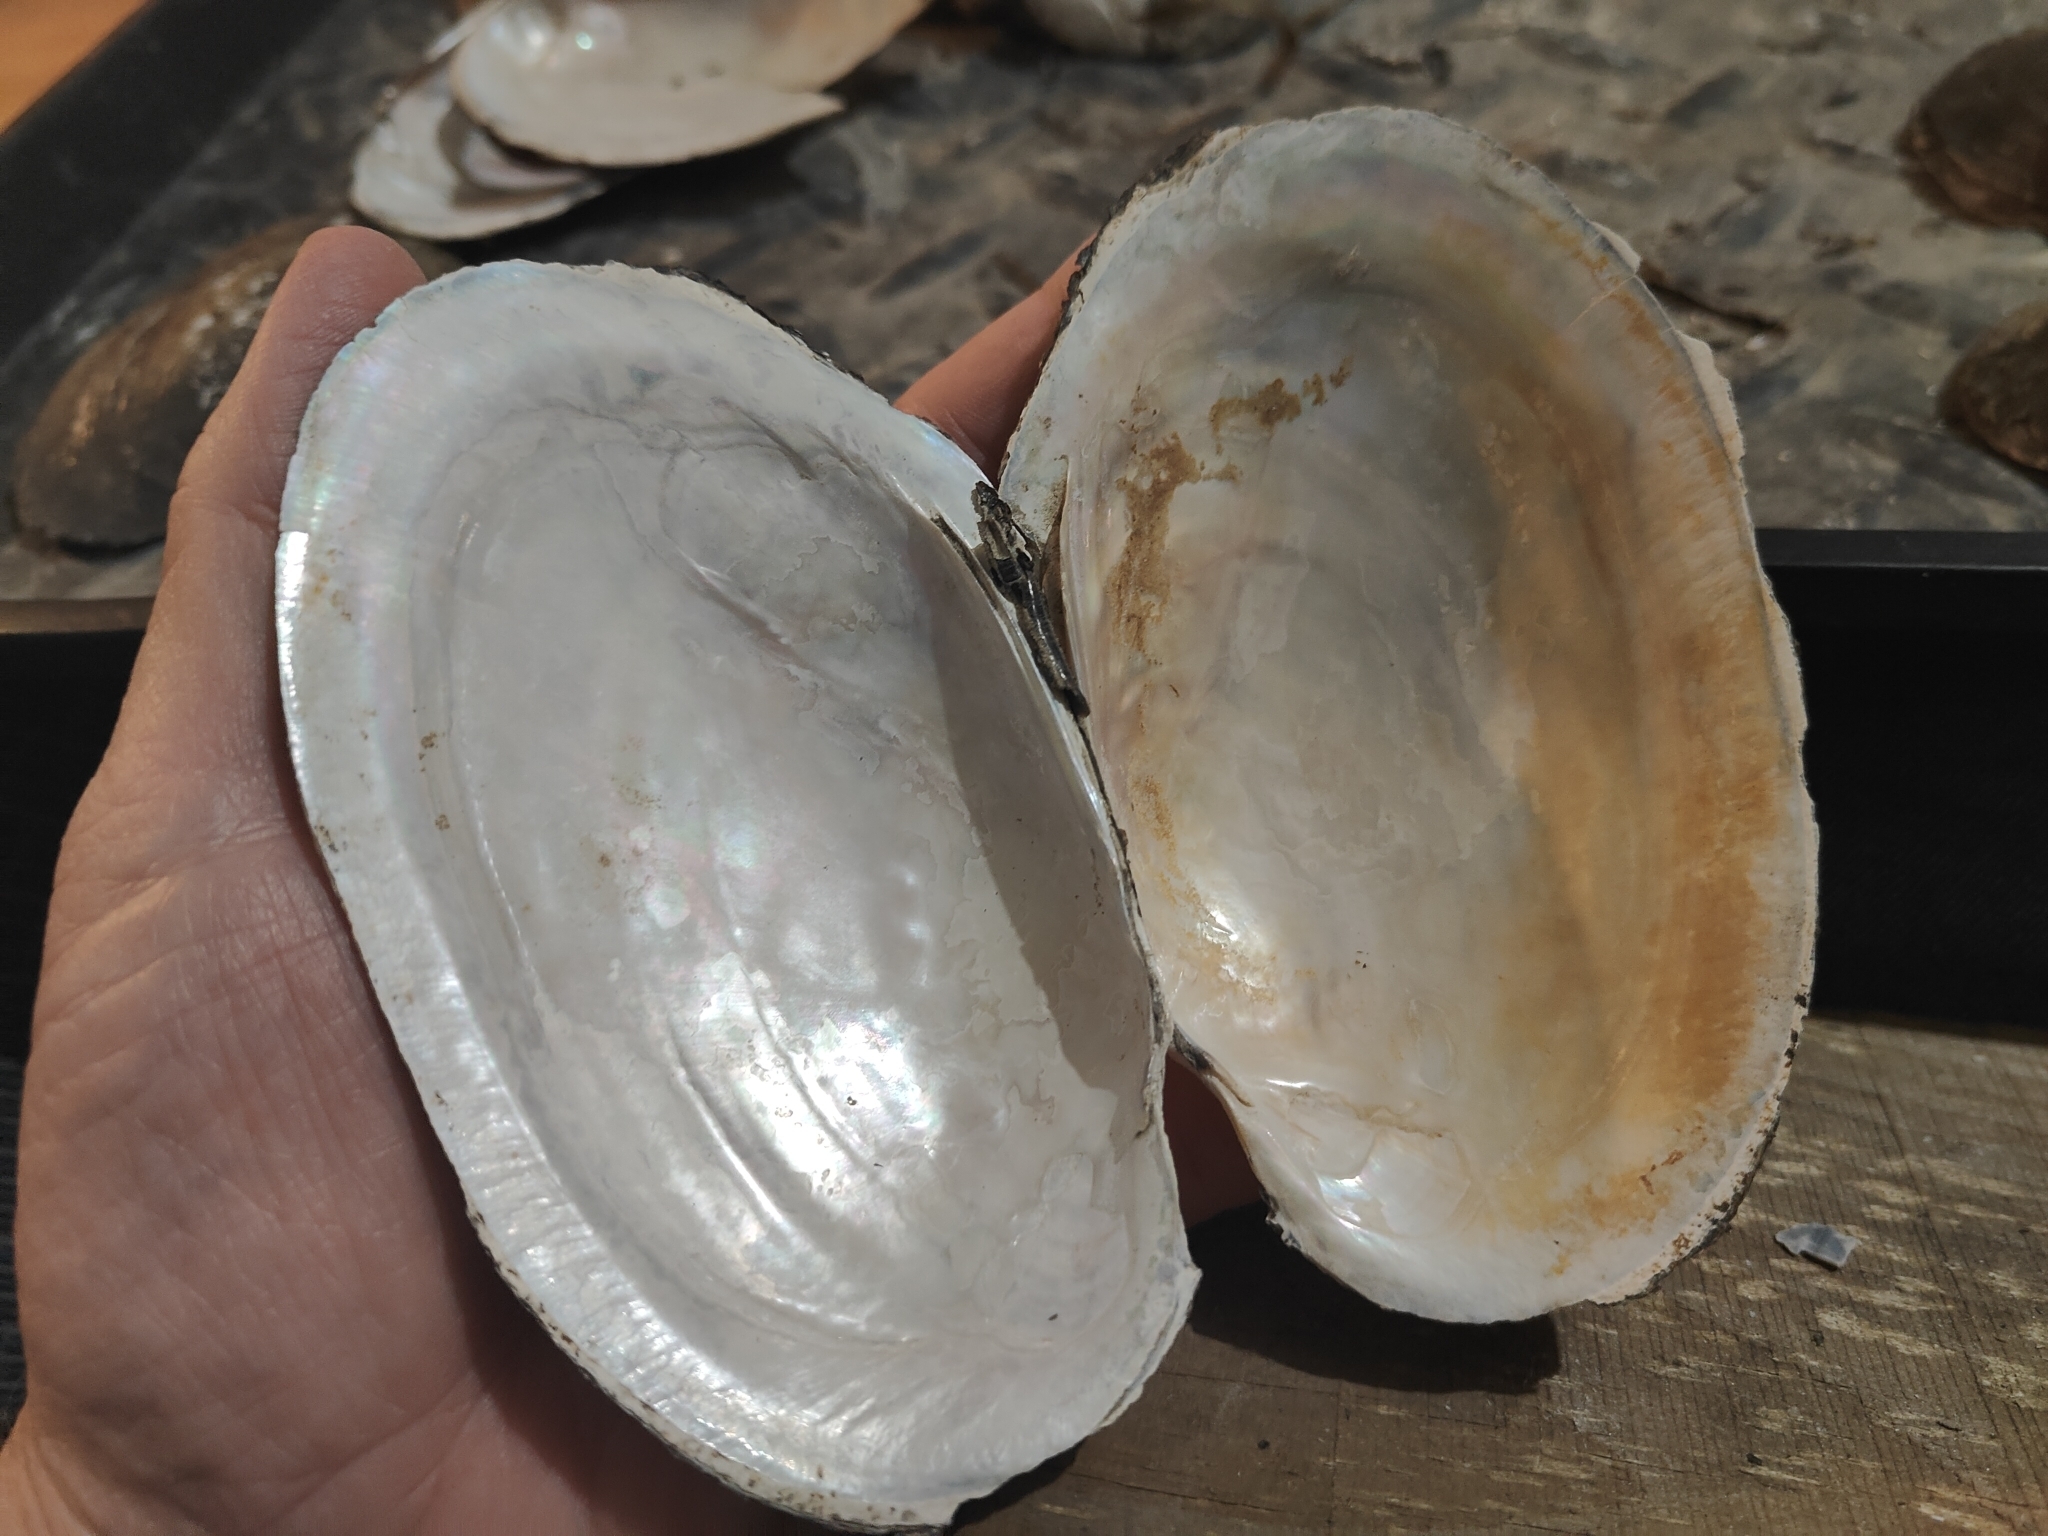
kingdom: Animalia
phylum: Mollusca
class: Bivalvia
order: Unionida
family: Unionidae
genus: Potamilus
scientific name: Potamilus fragilis
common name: Fragile papershell
